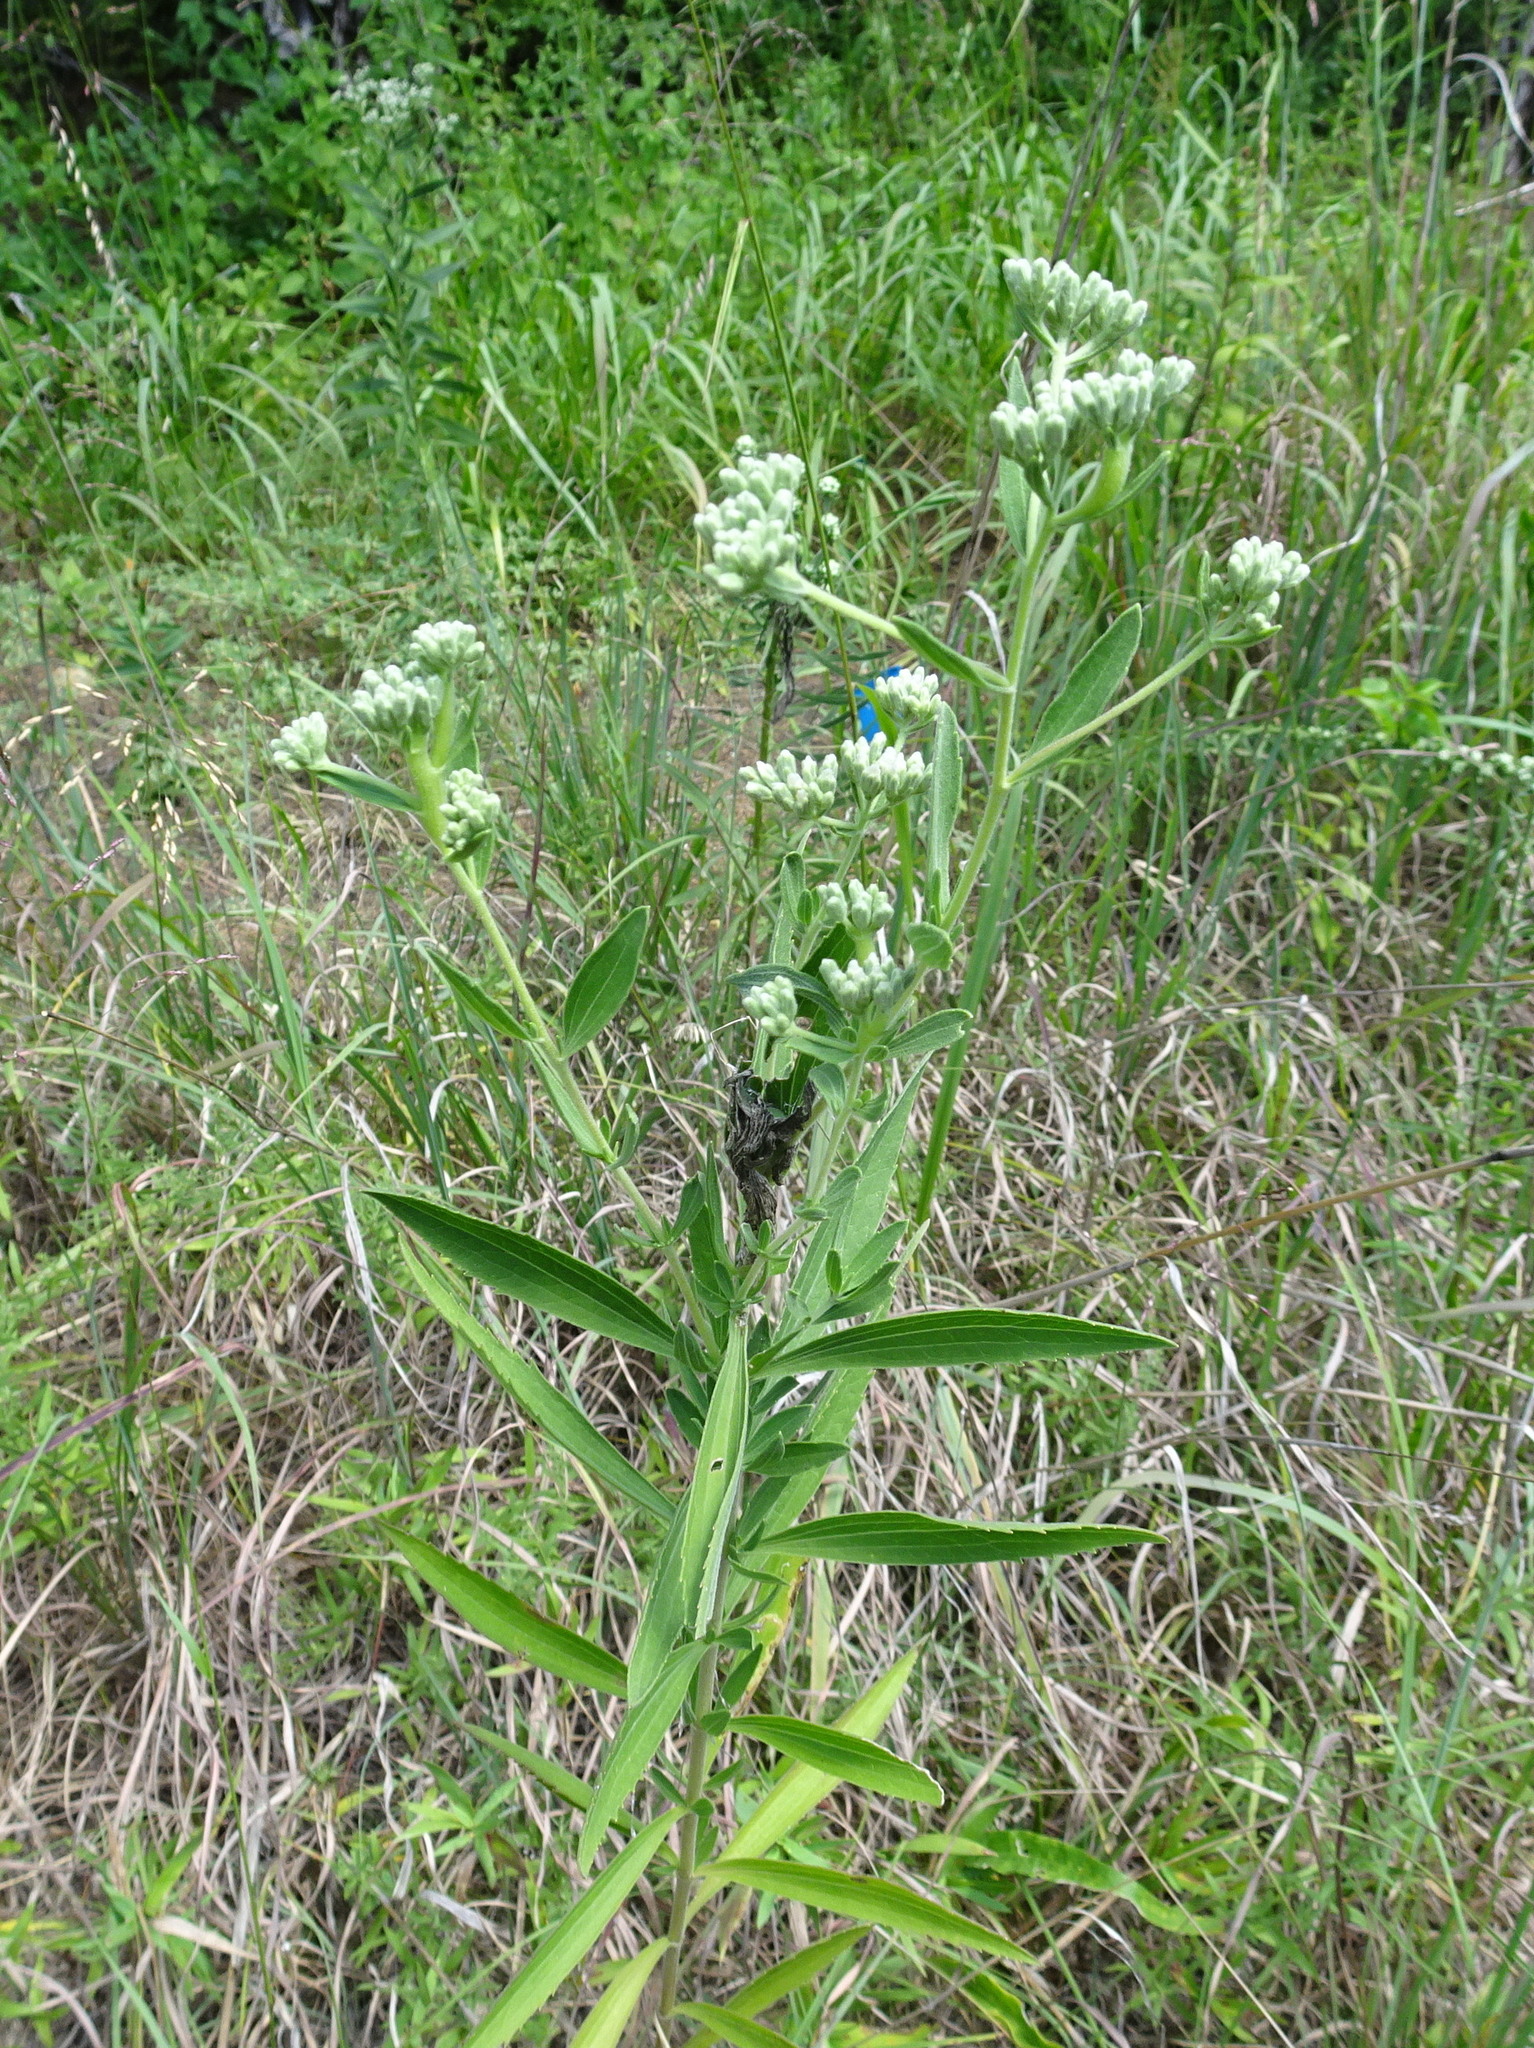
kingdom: Plantae
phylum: Tracheophyta
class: Magnoliopsida
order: Asterales
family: Asteraceae
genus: Eupatorium
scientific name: Eupatorium altissimum
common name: Tall thoroughwort
